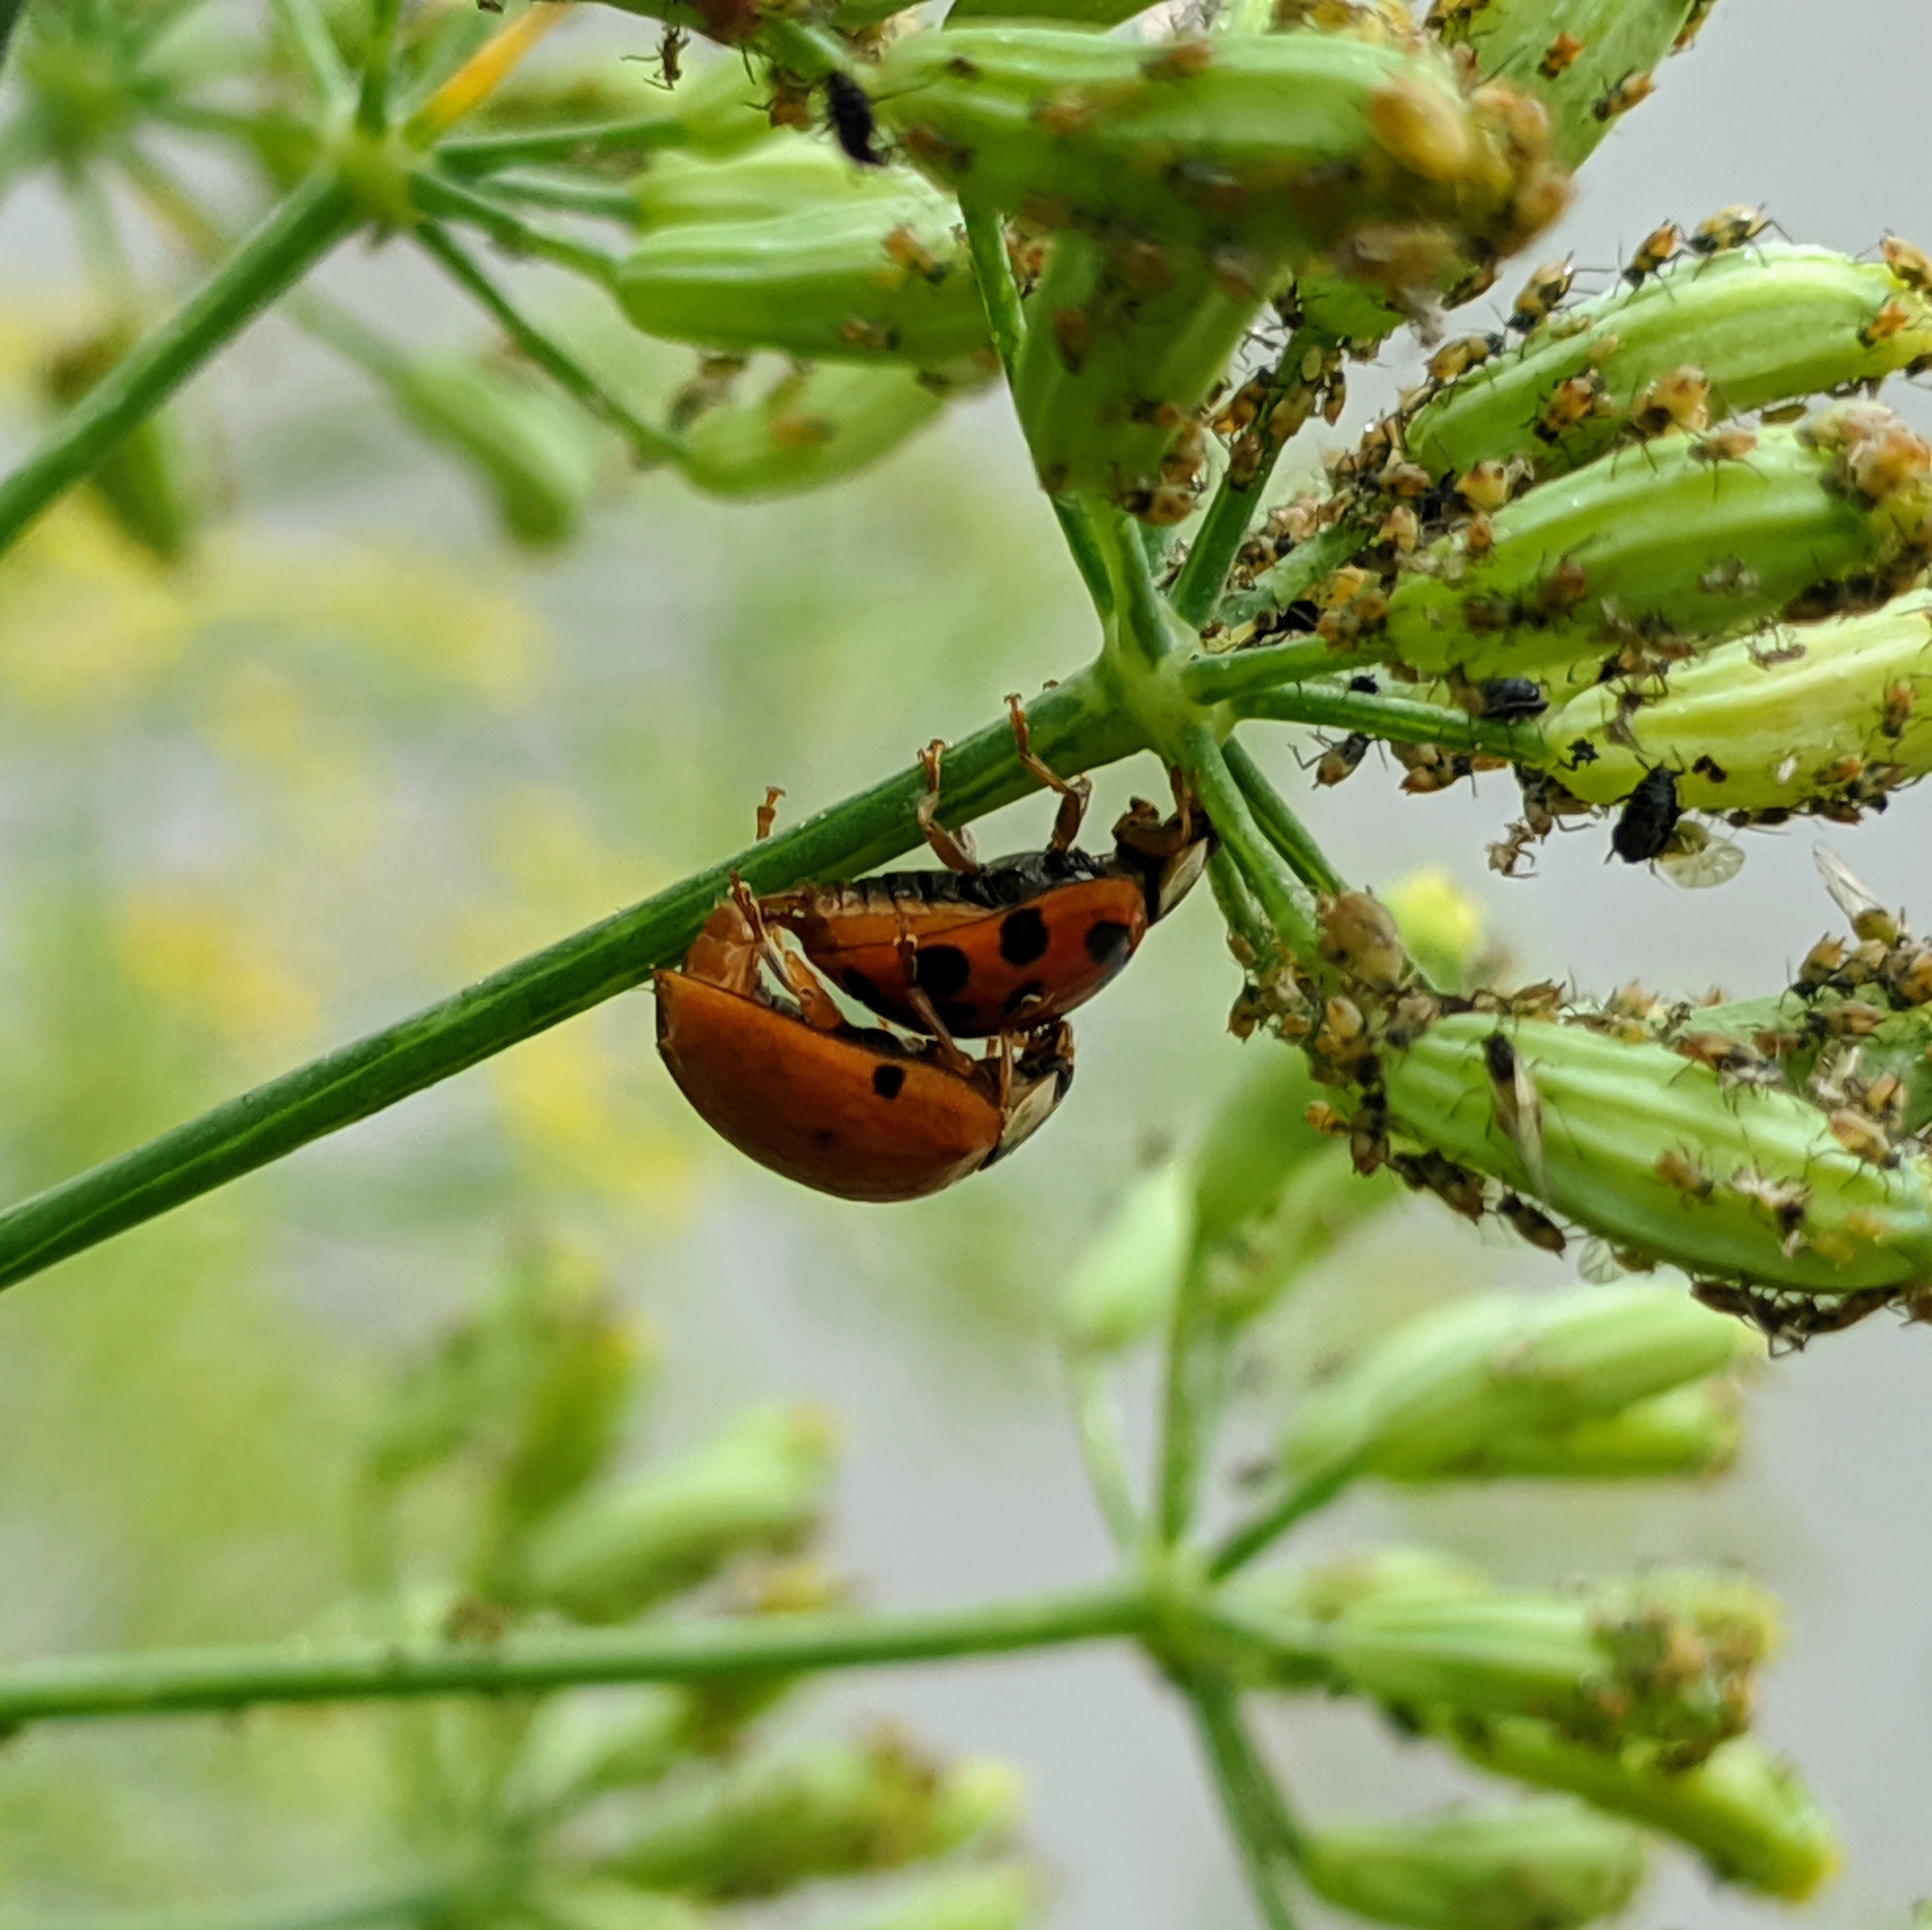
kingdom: Animalia
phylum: Arthropoda
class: Insecta
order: Coleoptera
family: Coccinellidae
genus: Harmonia
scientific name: Harmonia axyridis
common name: Harlequin ladybird
